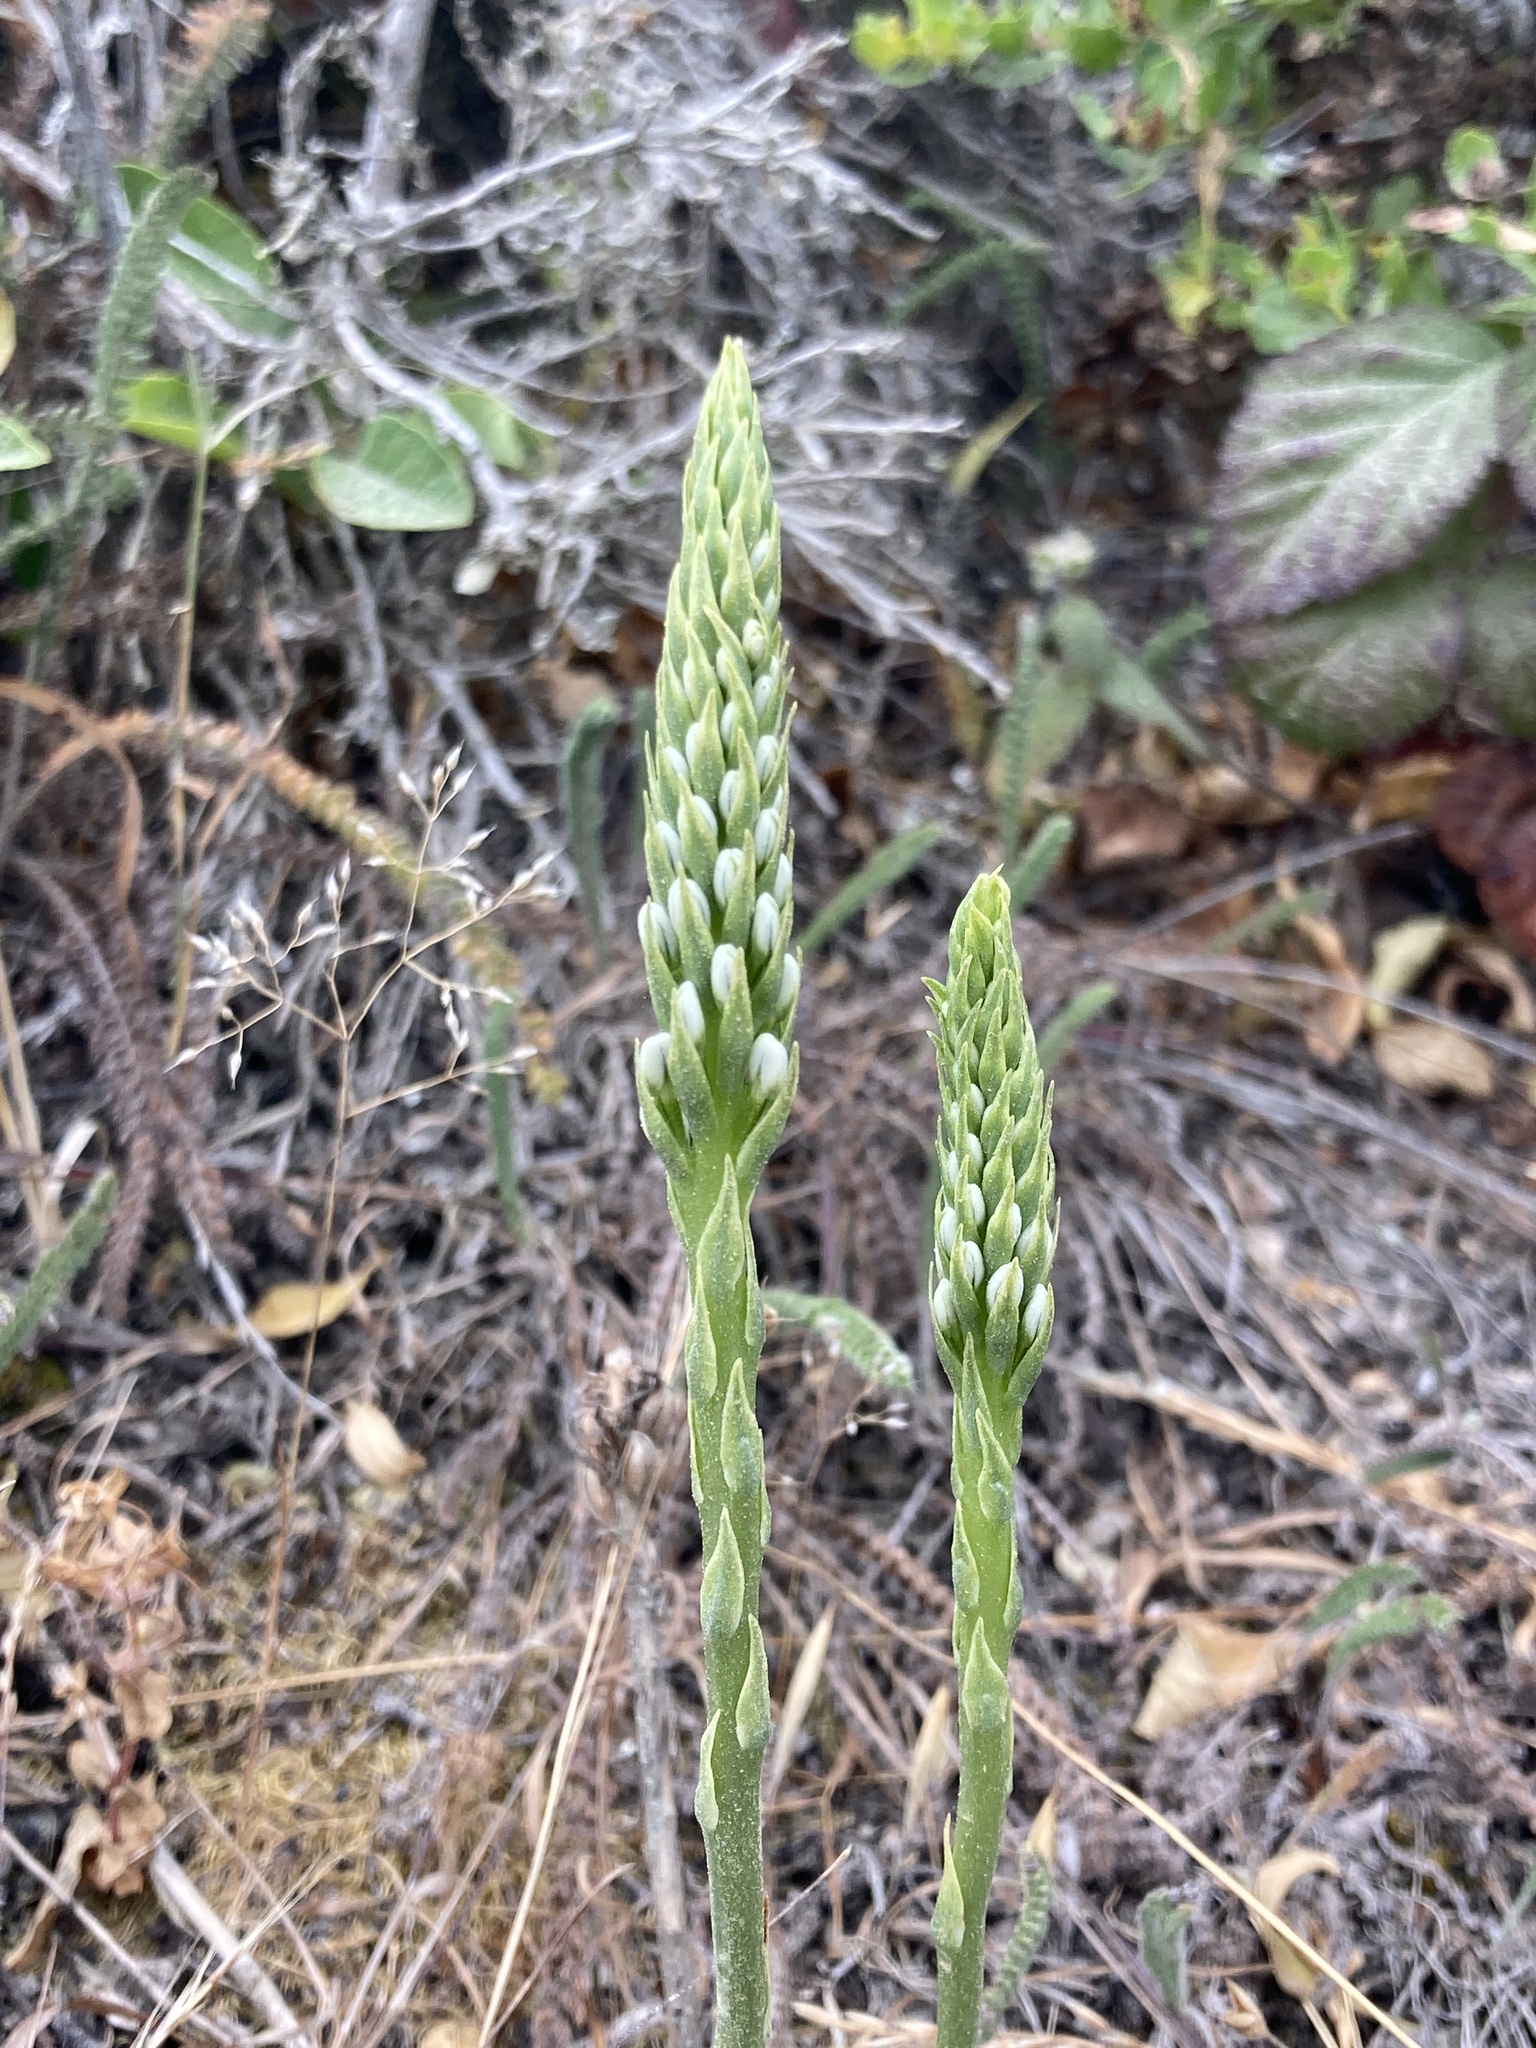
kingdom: Plantae
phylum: Tracheophyta
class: Liliopsida
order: Asparagales
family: Orchidaceae
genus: Platanthera
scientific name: Platanthera elegans
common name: Coast piperia
